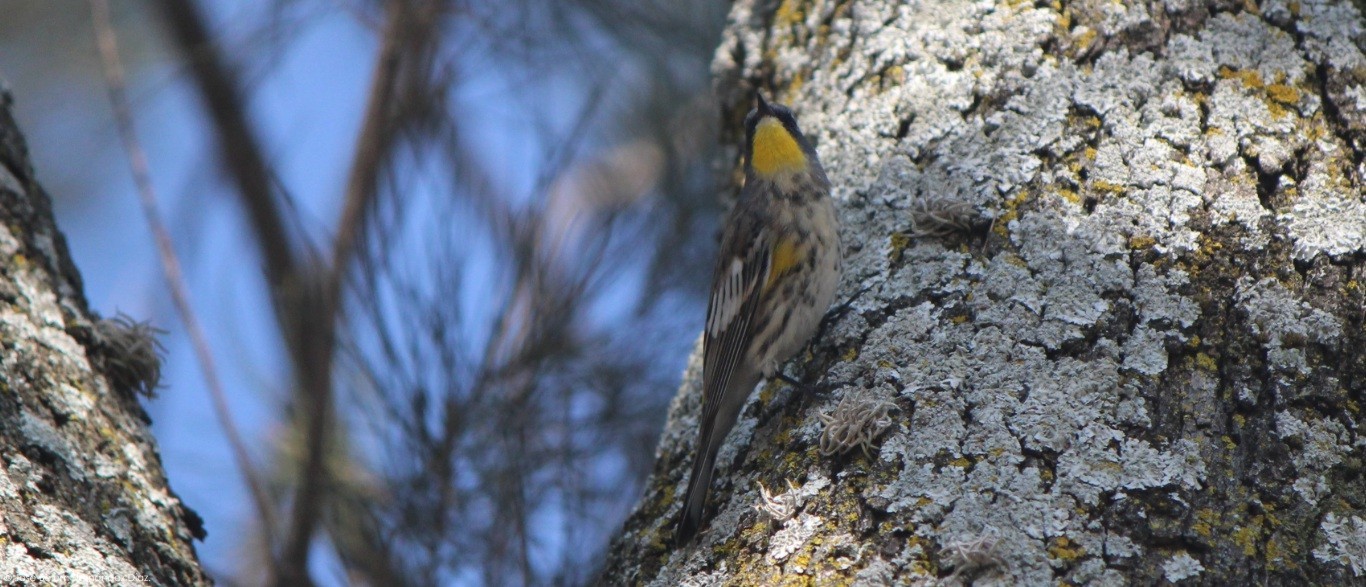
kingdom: Animalia
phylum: Chordata
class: Aves
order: Passeriformes
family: Parulidae
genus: Setophaga
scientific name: Setophaga auduboni
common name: Audubon's warbler
